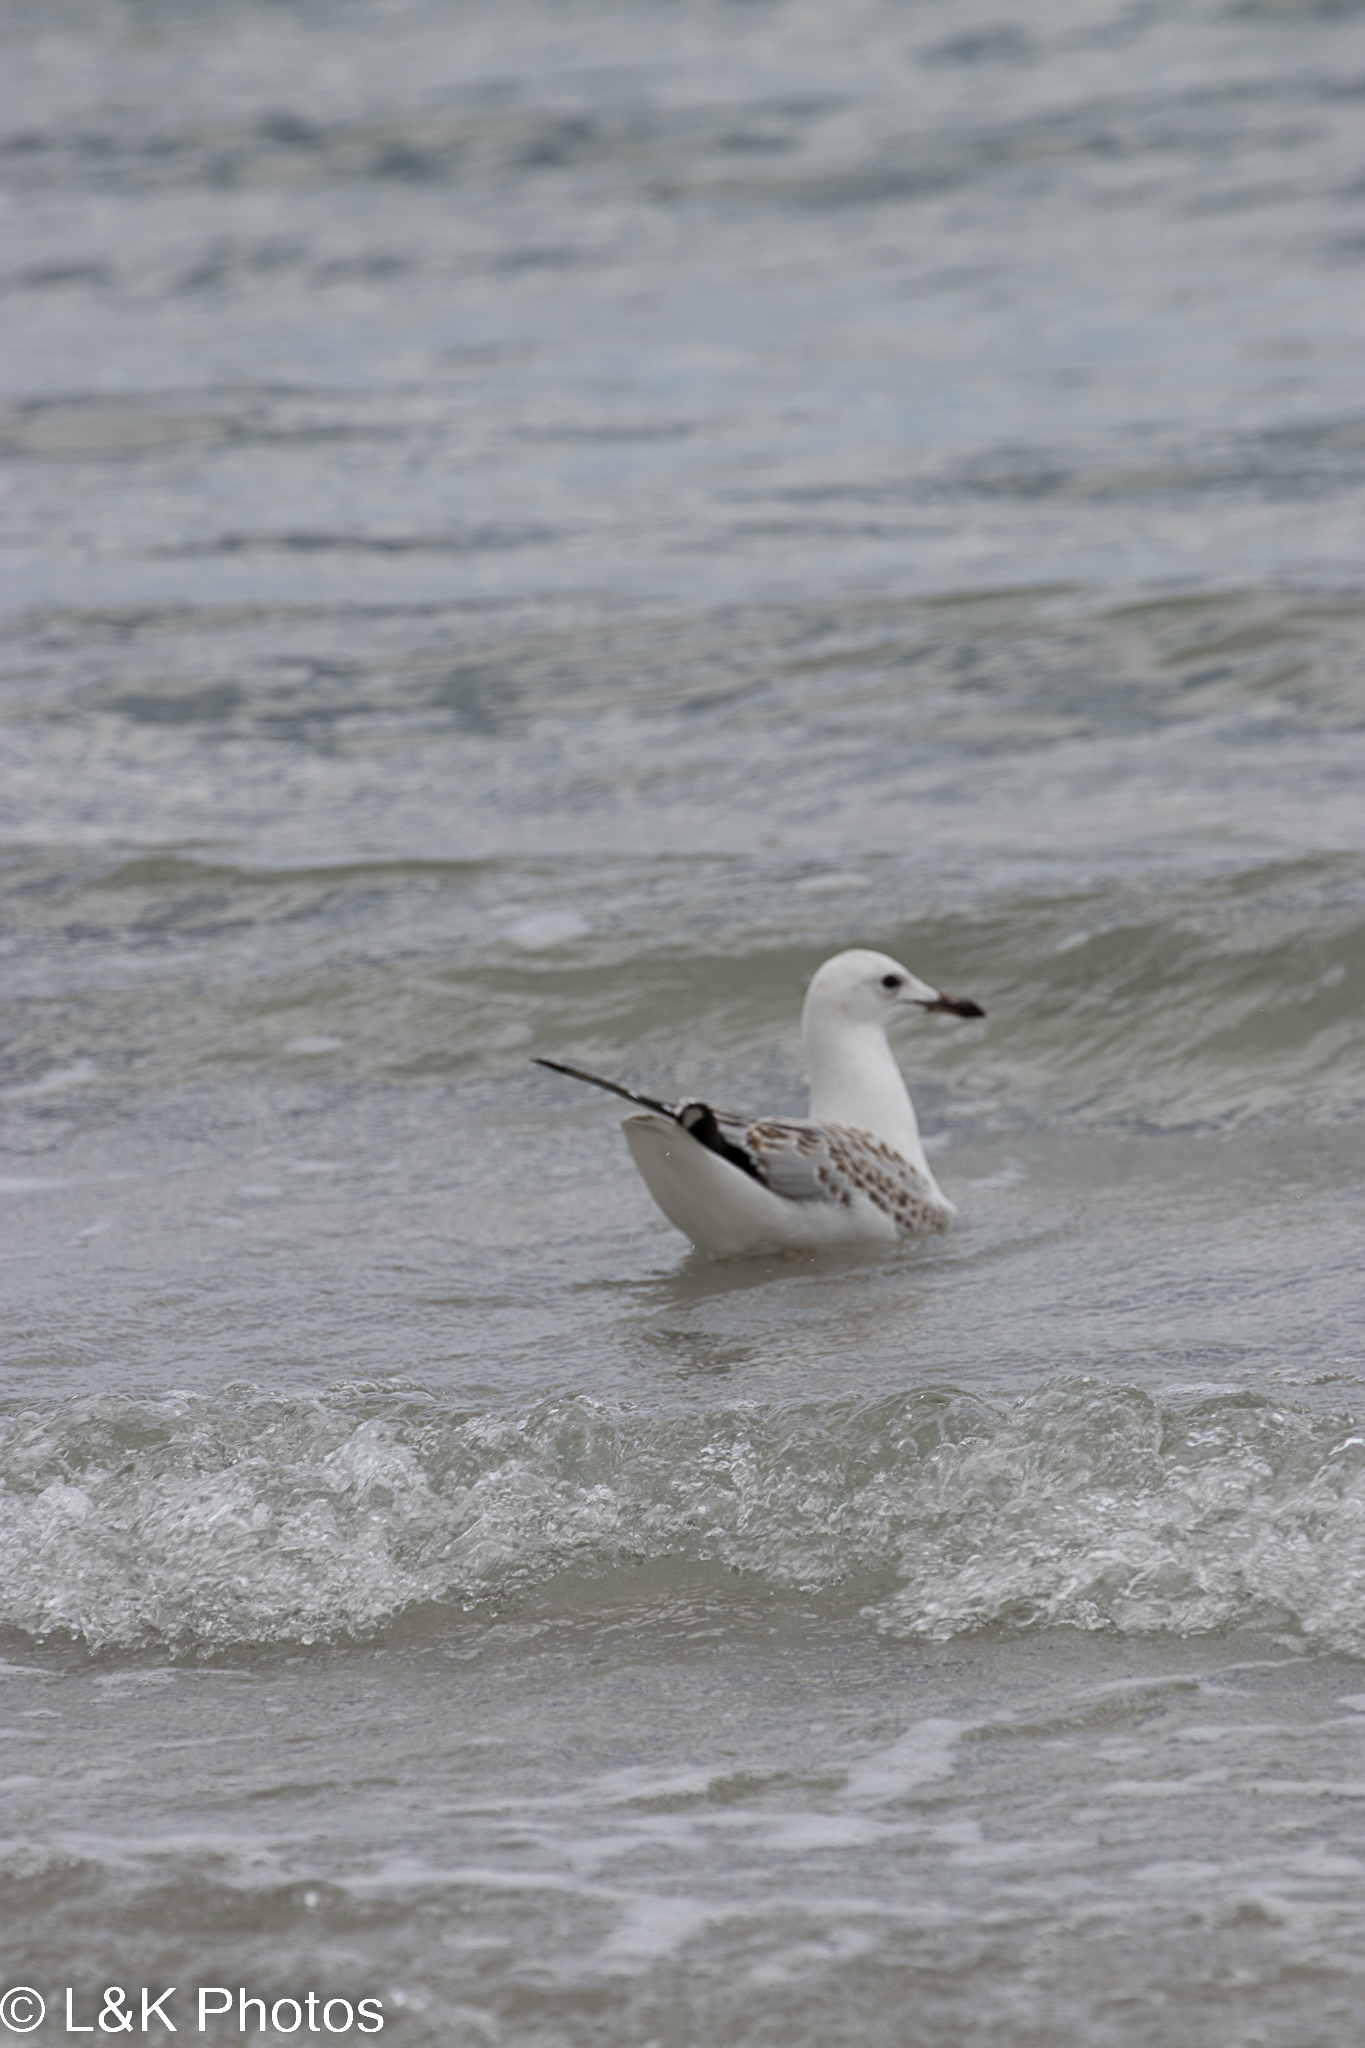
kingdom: Animalia
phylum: Chordata
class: Aves
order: Charadriiformes
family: Laridae
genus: Chroicocephalus
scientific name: Chroicocephalus novaehollandiae
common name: Silver gull
